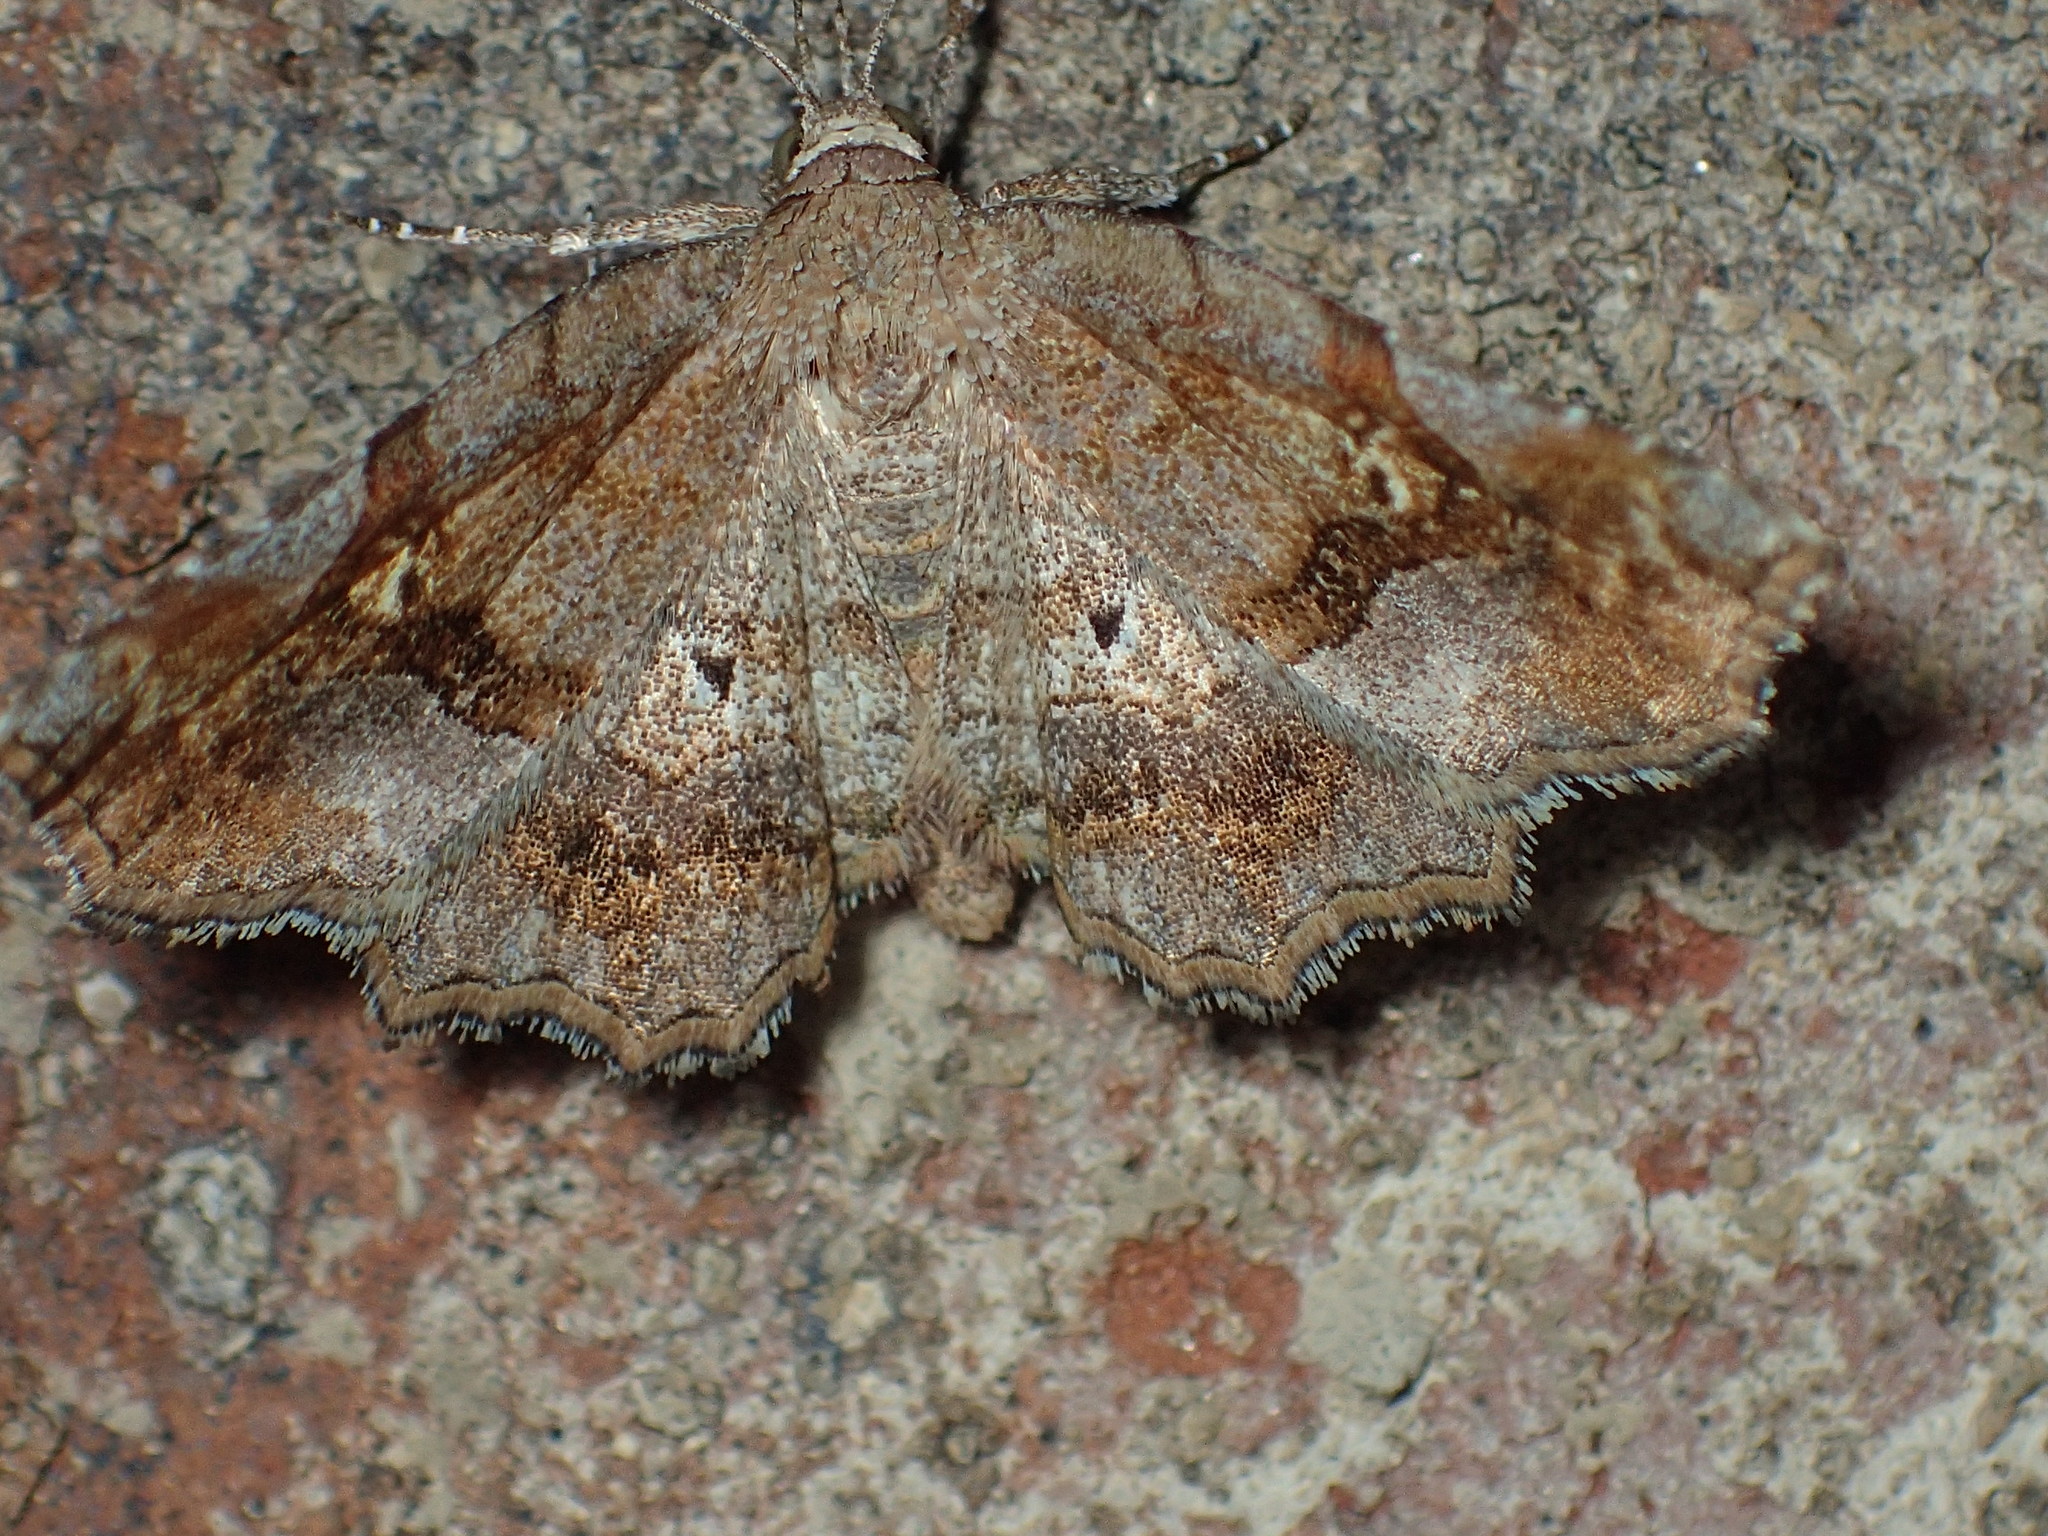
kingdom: Animalia
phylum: Arthropoda
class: Insecta
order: Lepidoptera
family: Erebidae
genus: Pangrapta
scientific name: Pangrapta decoralis
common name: Decorated owlet
